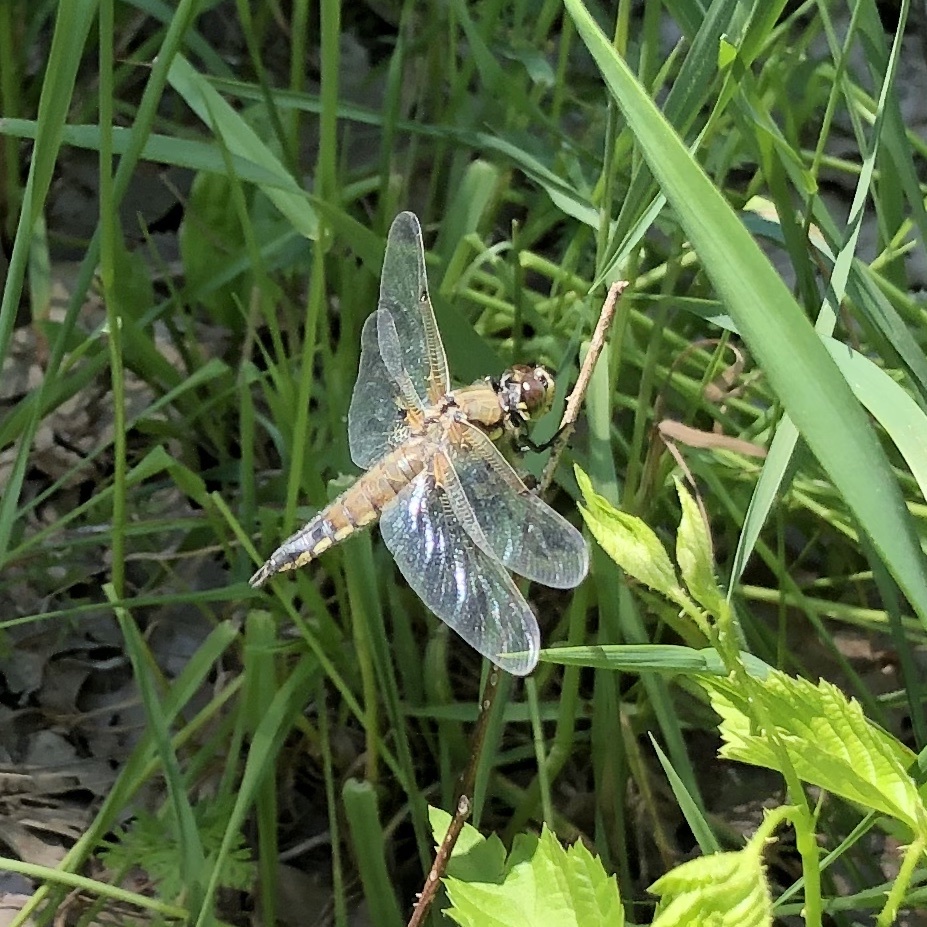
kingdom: Animalia
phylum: Arthropoda
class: Insecta
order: Odonata
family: Libellulidae
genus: Libellula
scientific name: Libellula quadrimaculata
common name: Four-spotted chaser
